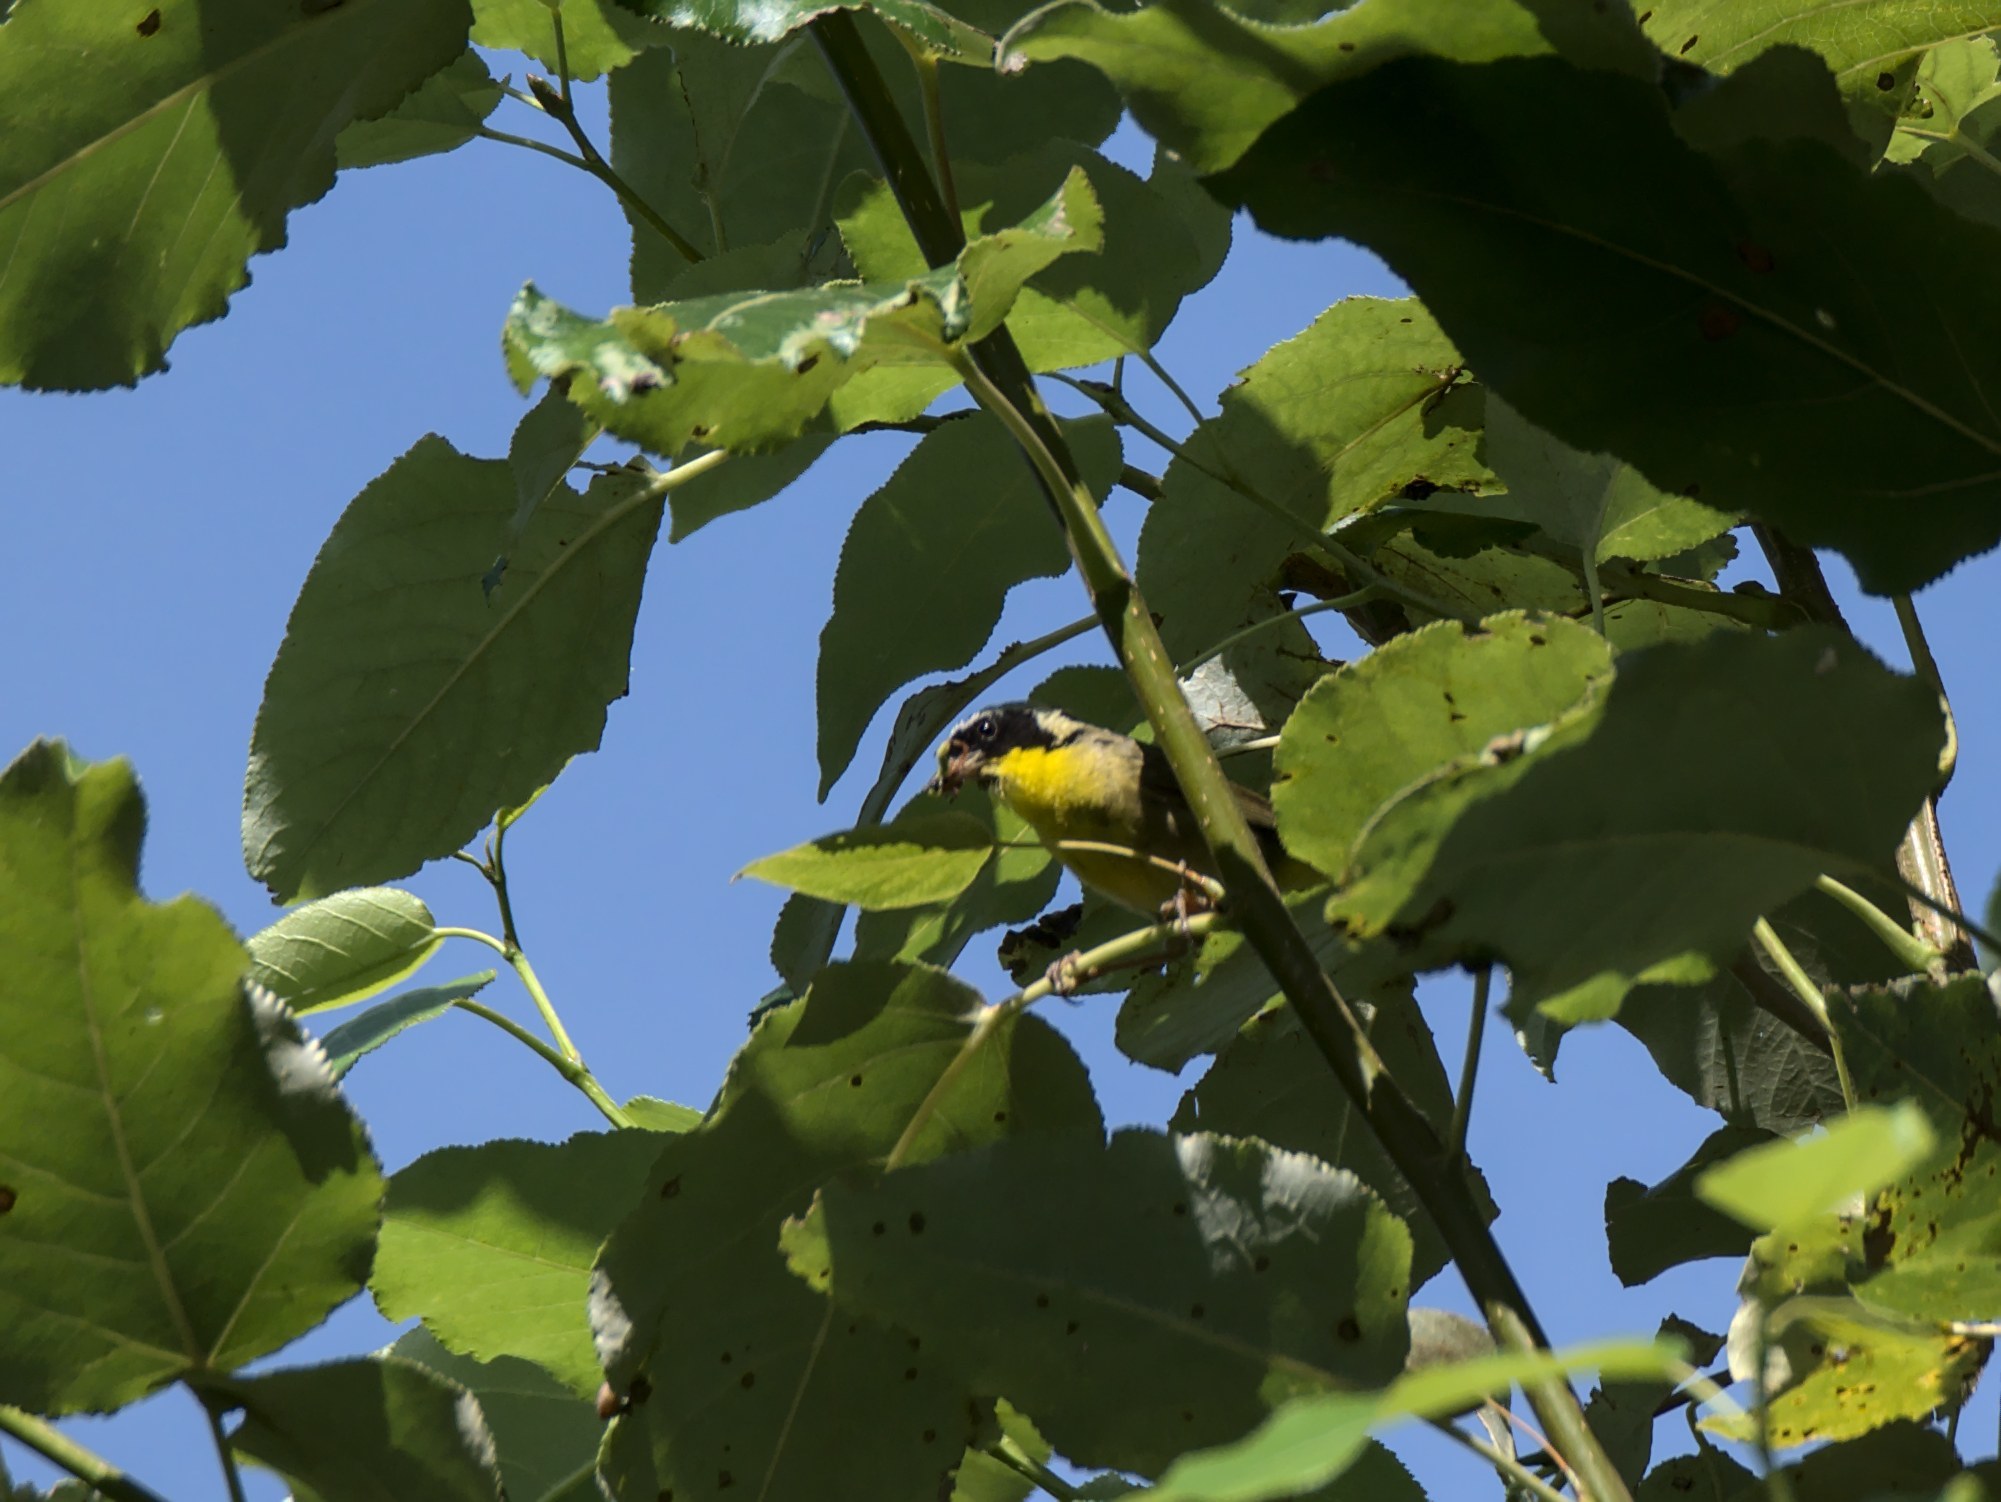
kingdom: Animalia
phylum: Chordata
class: Aves
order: Passeriformes
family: Parulidae
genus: Geothlypis
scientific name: Geothlypis trichas
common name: Common yellowthroat
